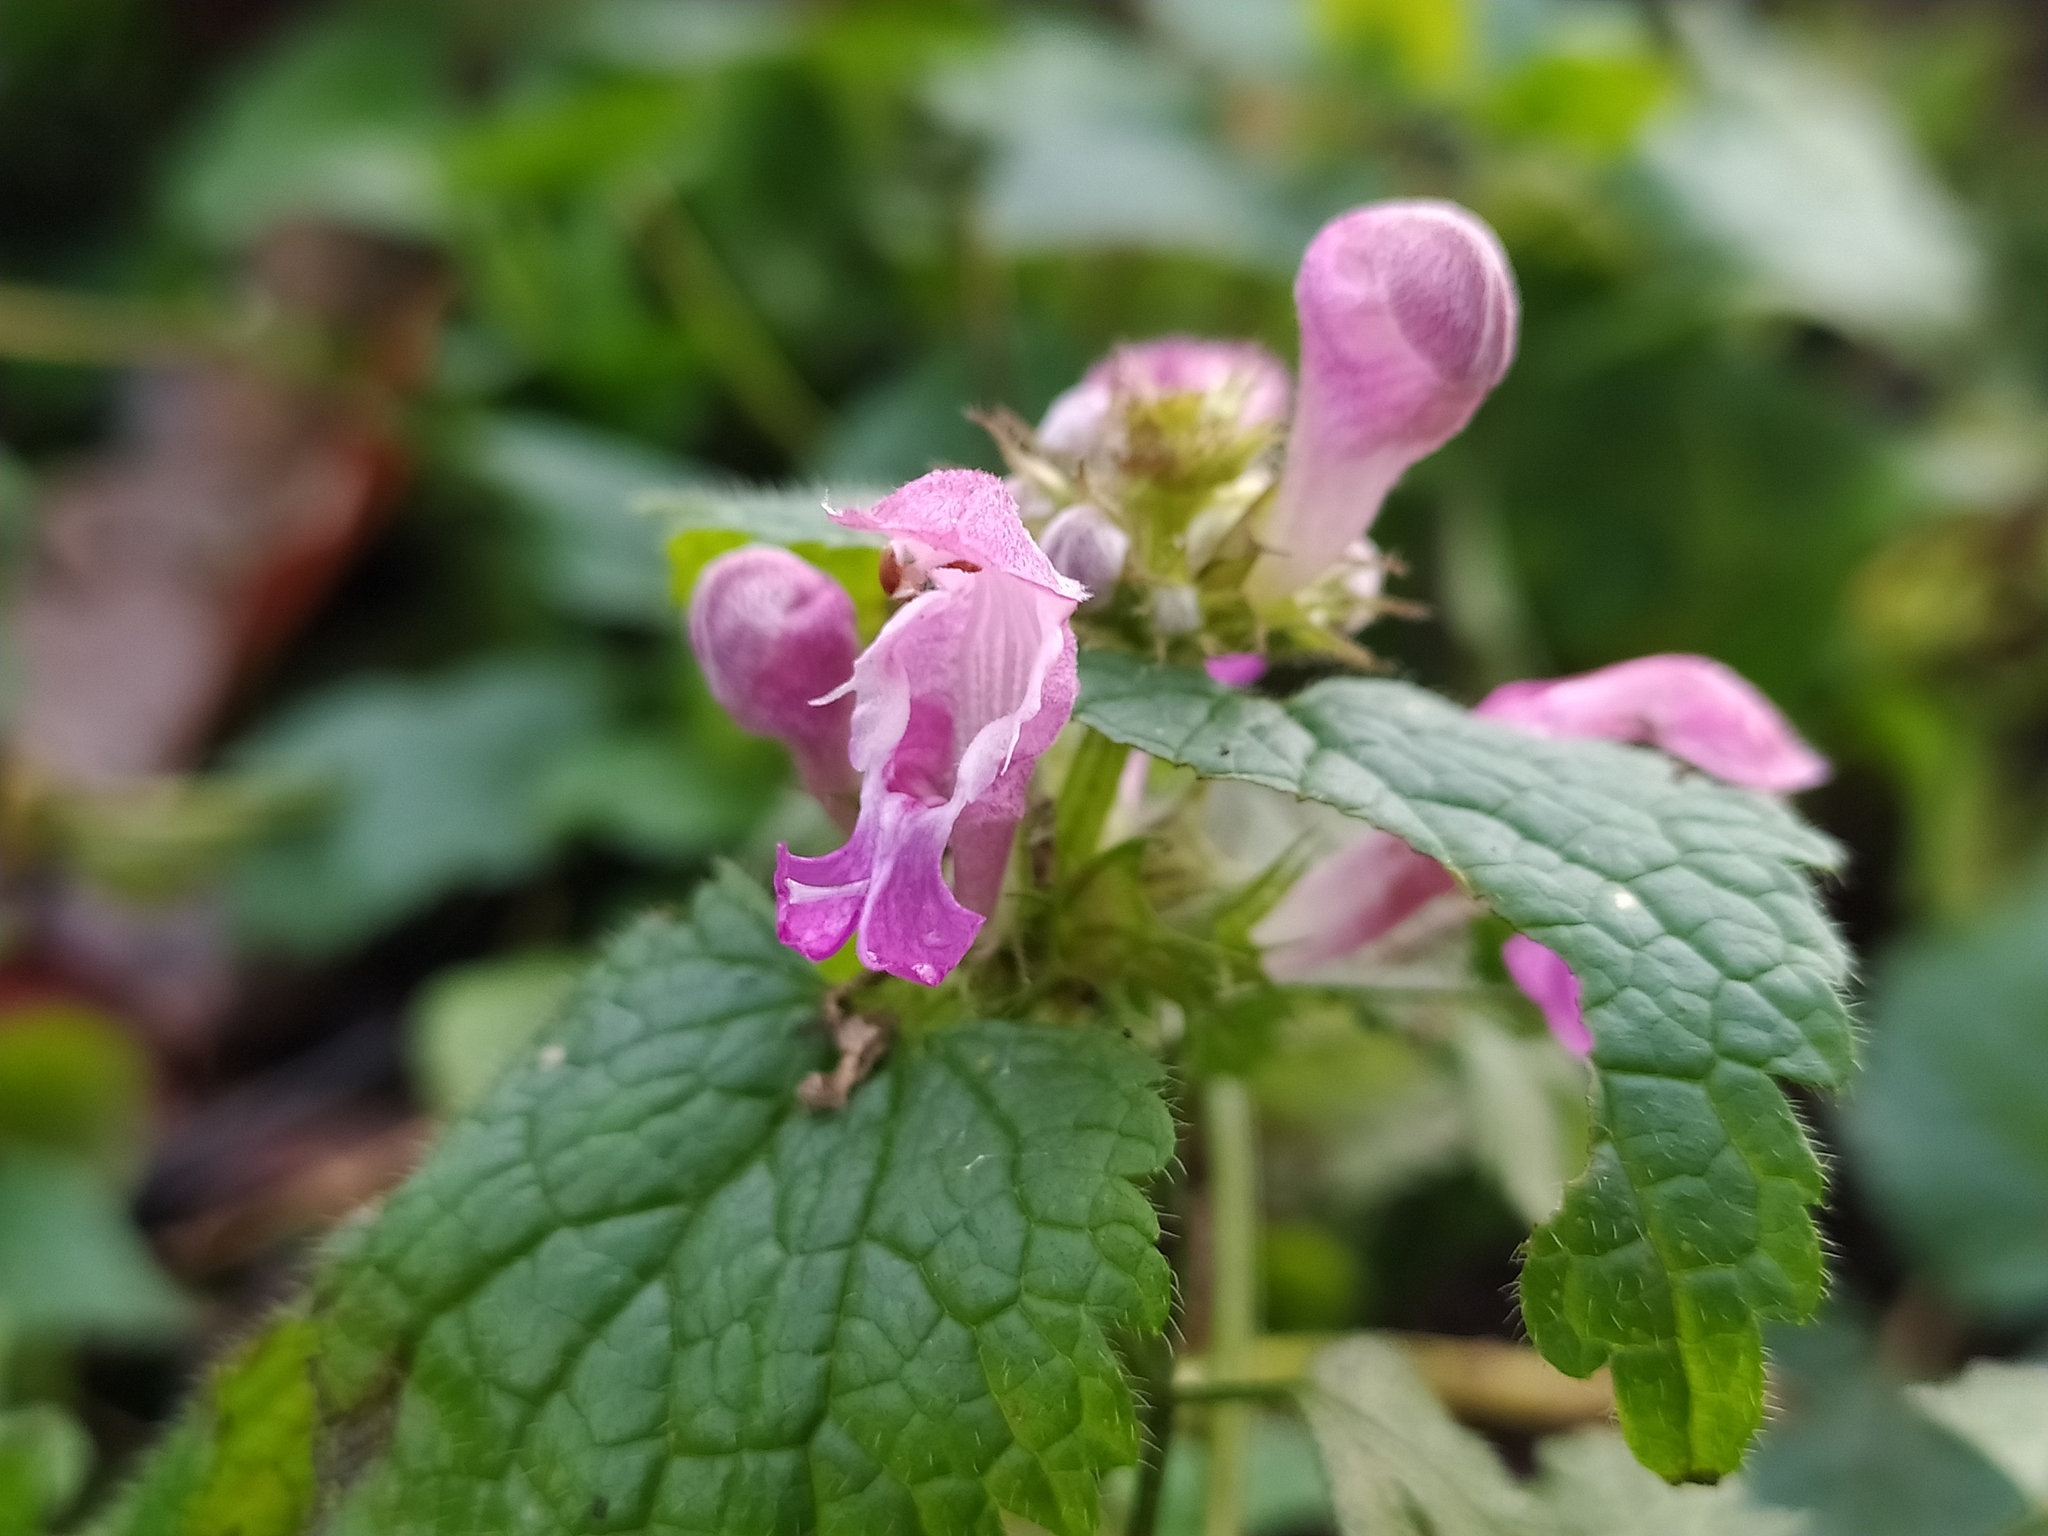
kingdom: Plantae
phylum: Tracheophyta
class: Magnoliopsida
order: Lamiales
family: Lamiaceae
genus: Lamium
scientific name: Lamium maculatum
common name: Spotted dead-nettle
